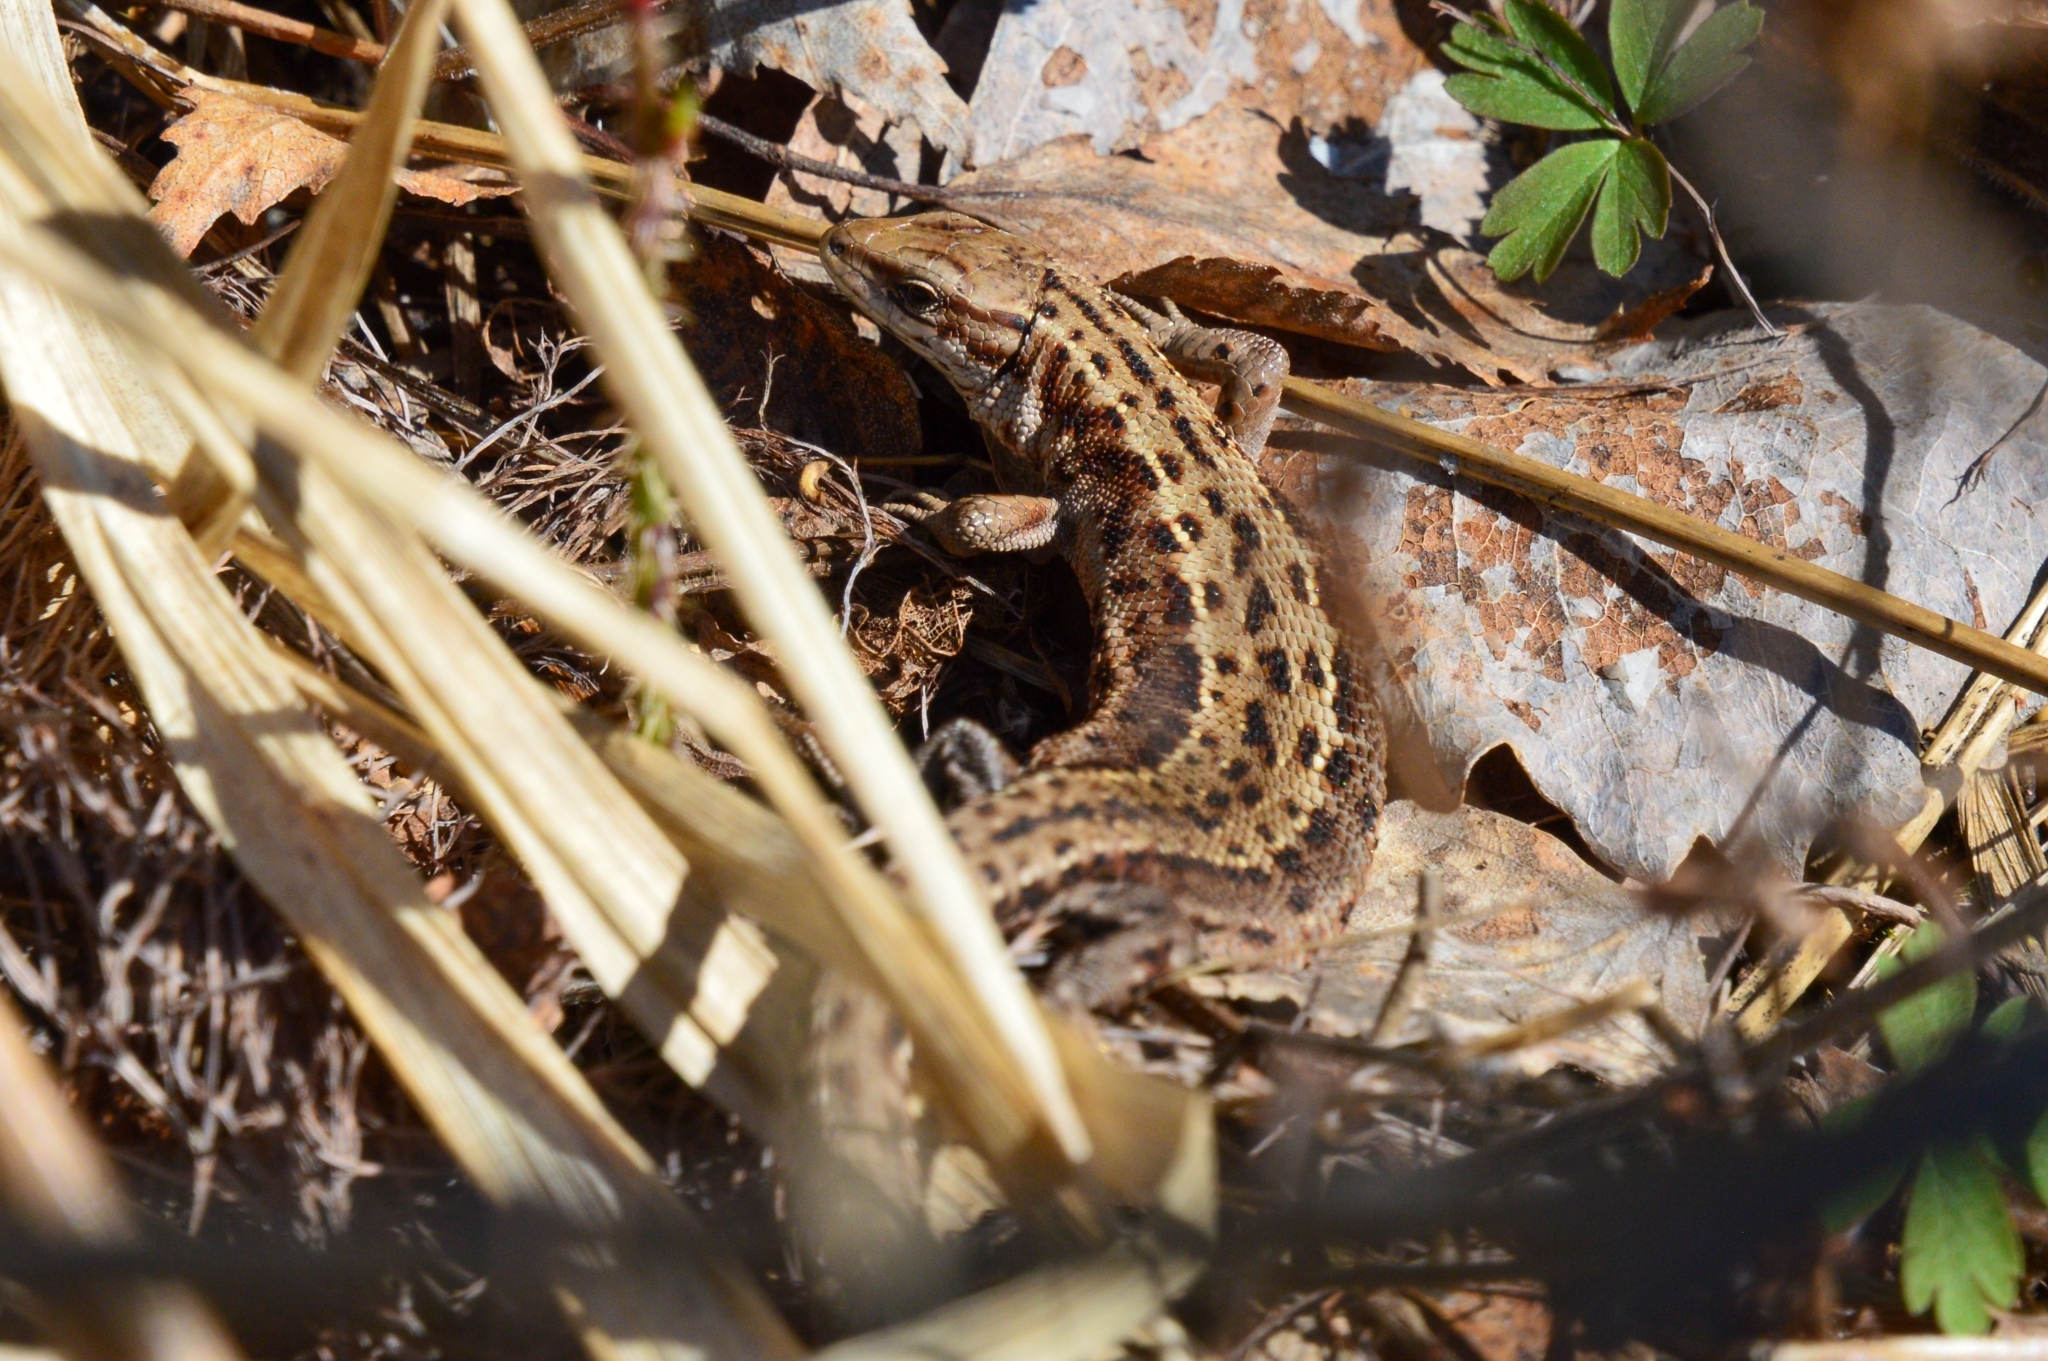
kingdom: Animalia
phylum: Chordata
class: Squamata
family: Lacertidae
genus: Zootoca
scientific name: Zootoca vivipara
